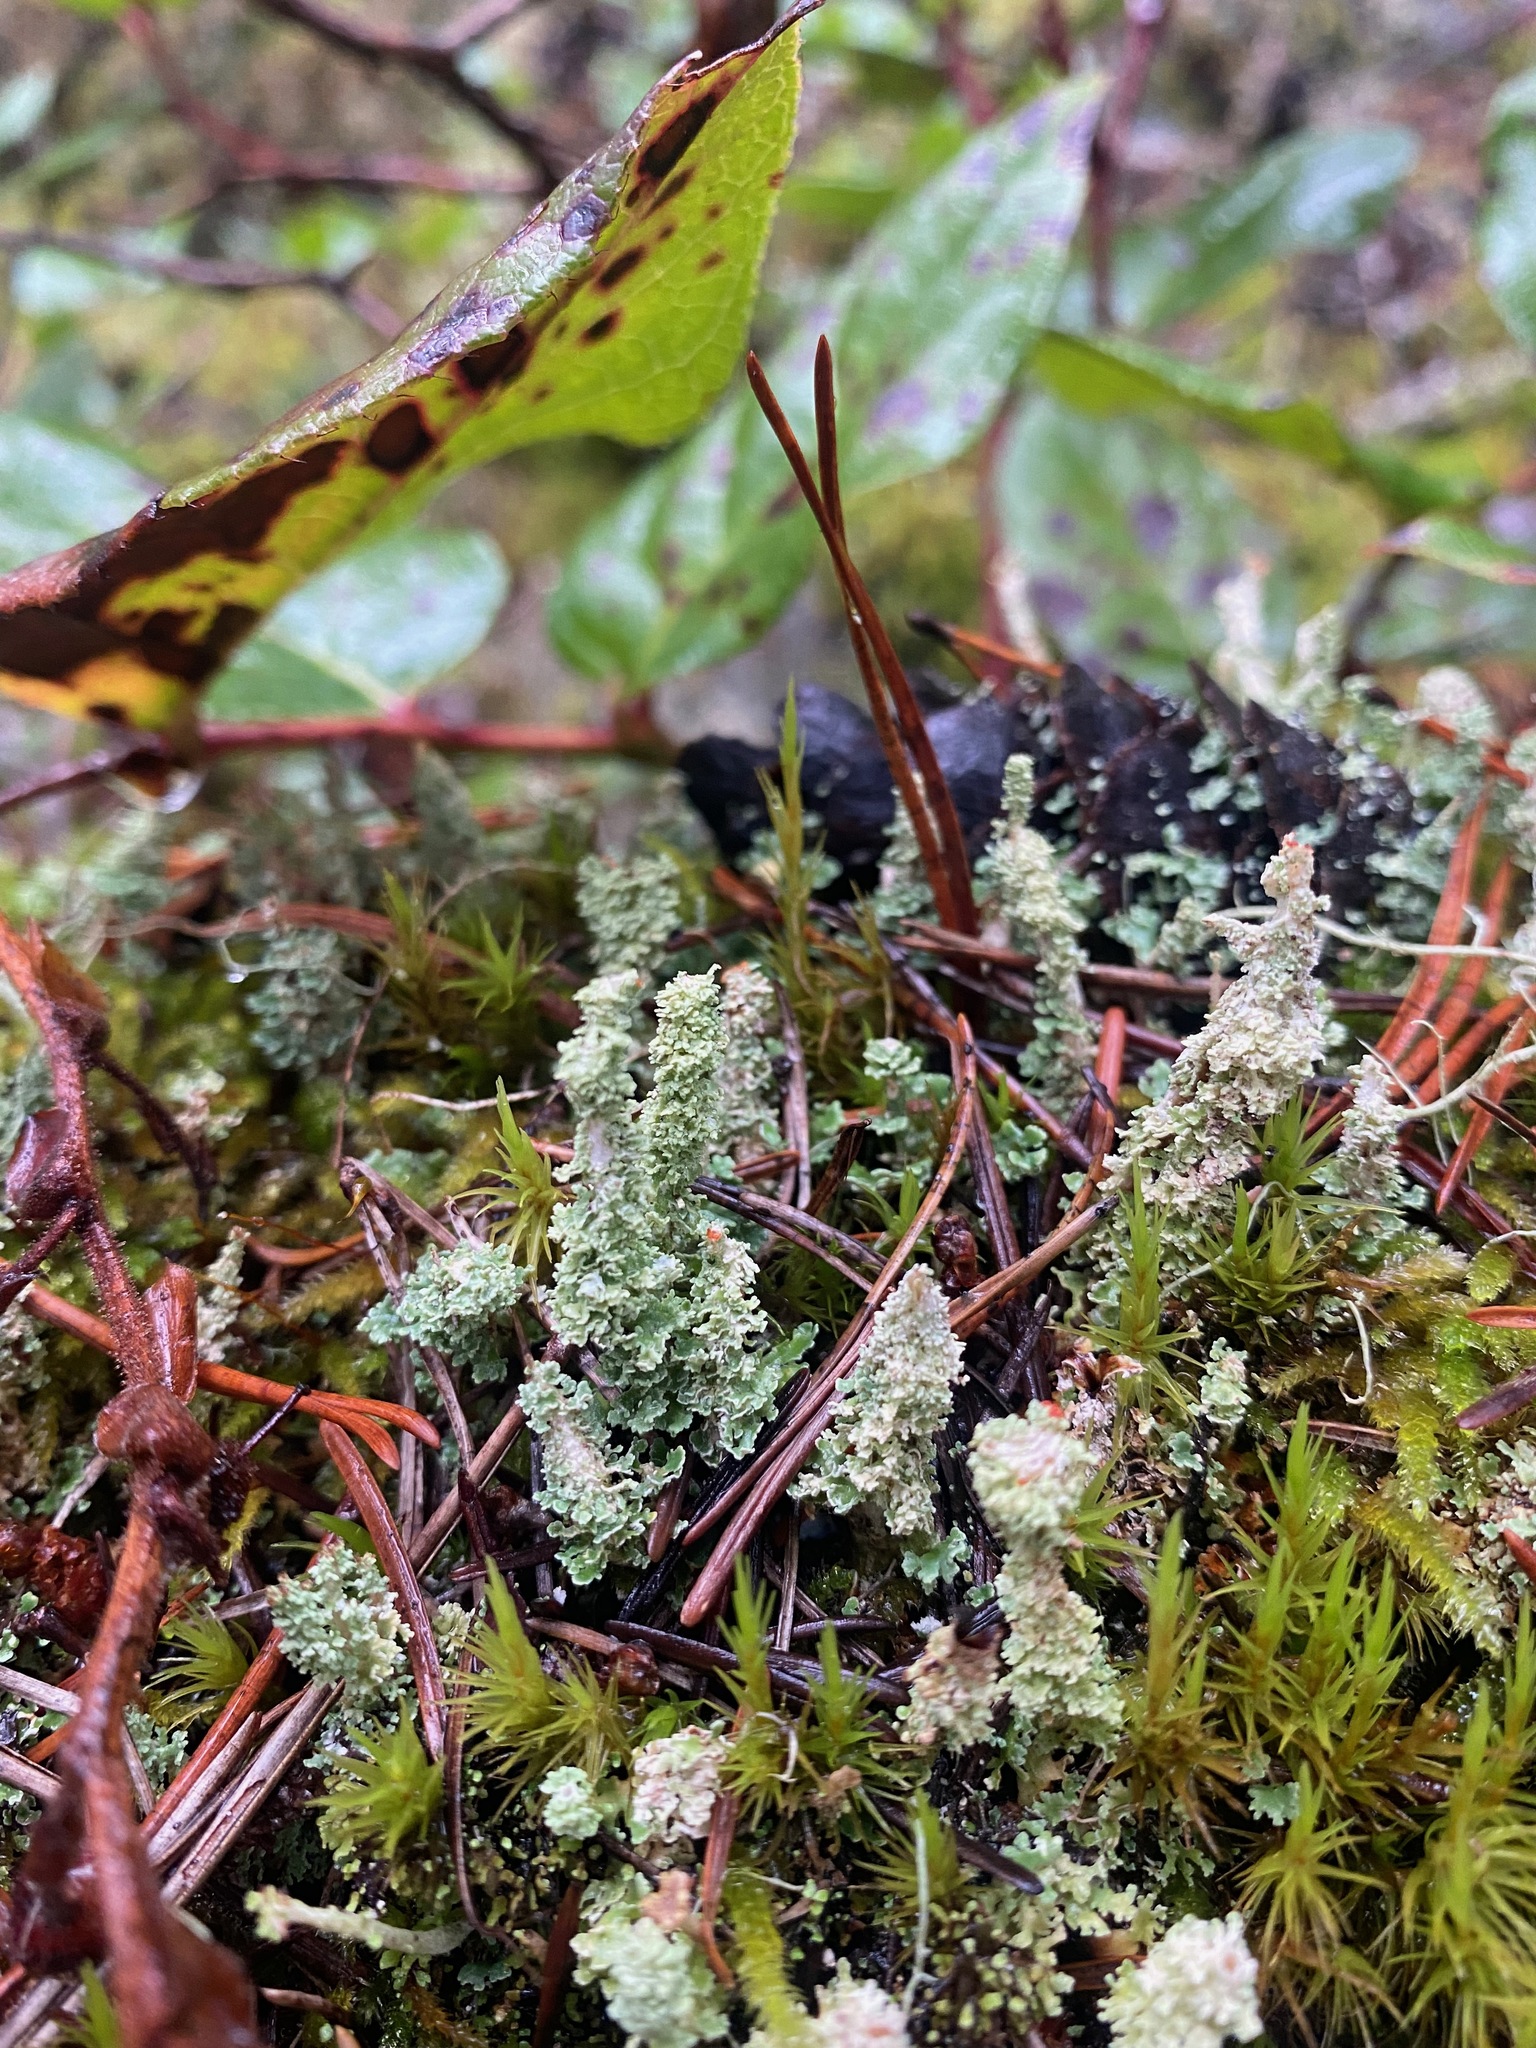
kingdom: Fungi
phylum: Ascomycota
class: Lecanoromycetes
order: Lecanorales
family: Cladoniaceae
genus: Cladonia
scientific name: Cladonia squamosa
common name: Dragon horn
